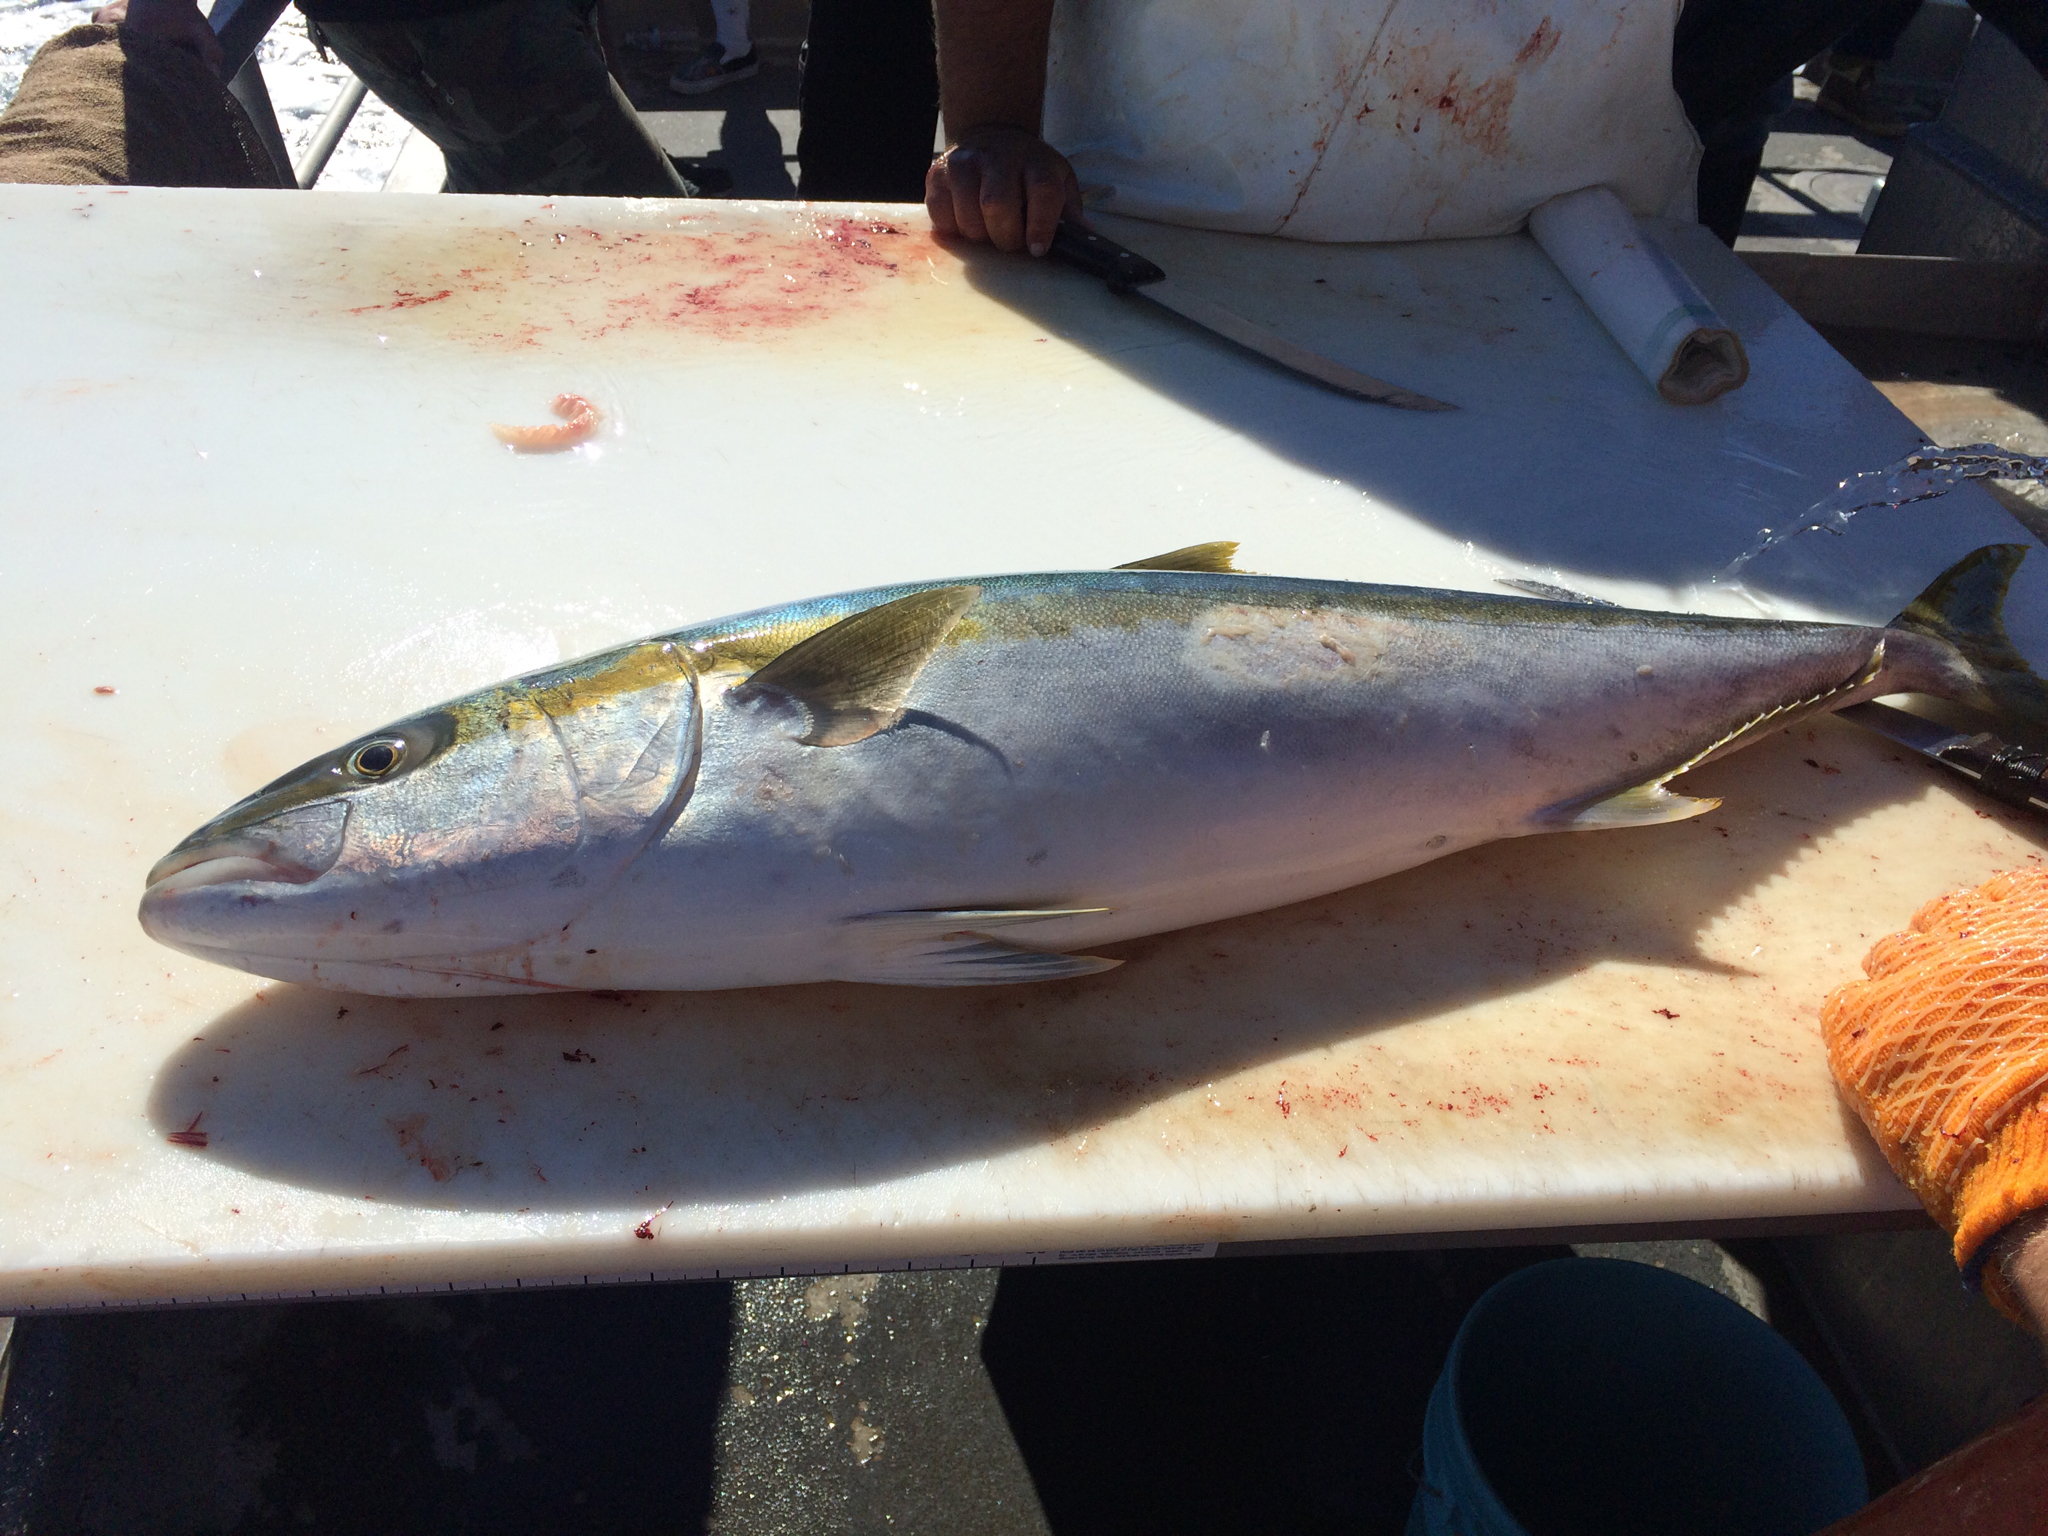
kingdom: Animalia
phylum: Chordata
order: Perciformes
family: Carangidae
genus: Seriola
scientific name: Seriola lalandi
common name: Yellowtail kingfish
